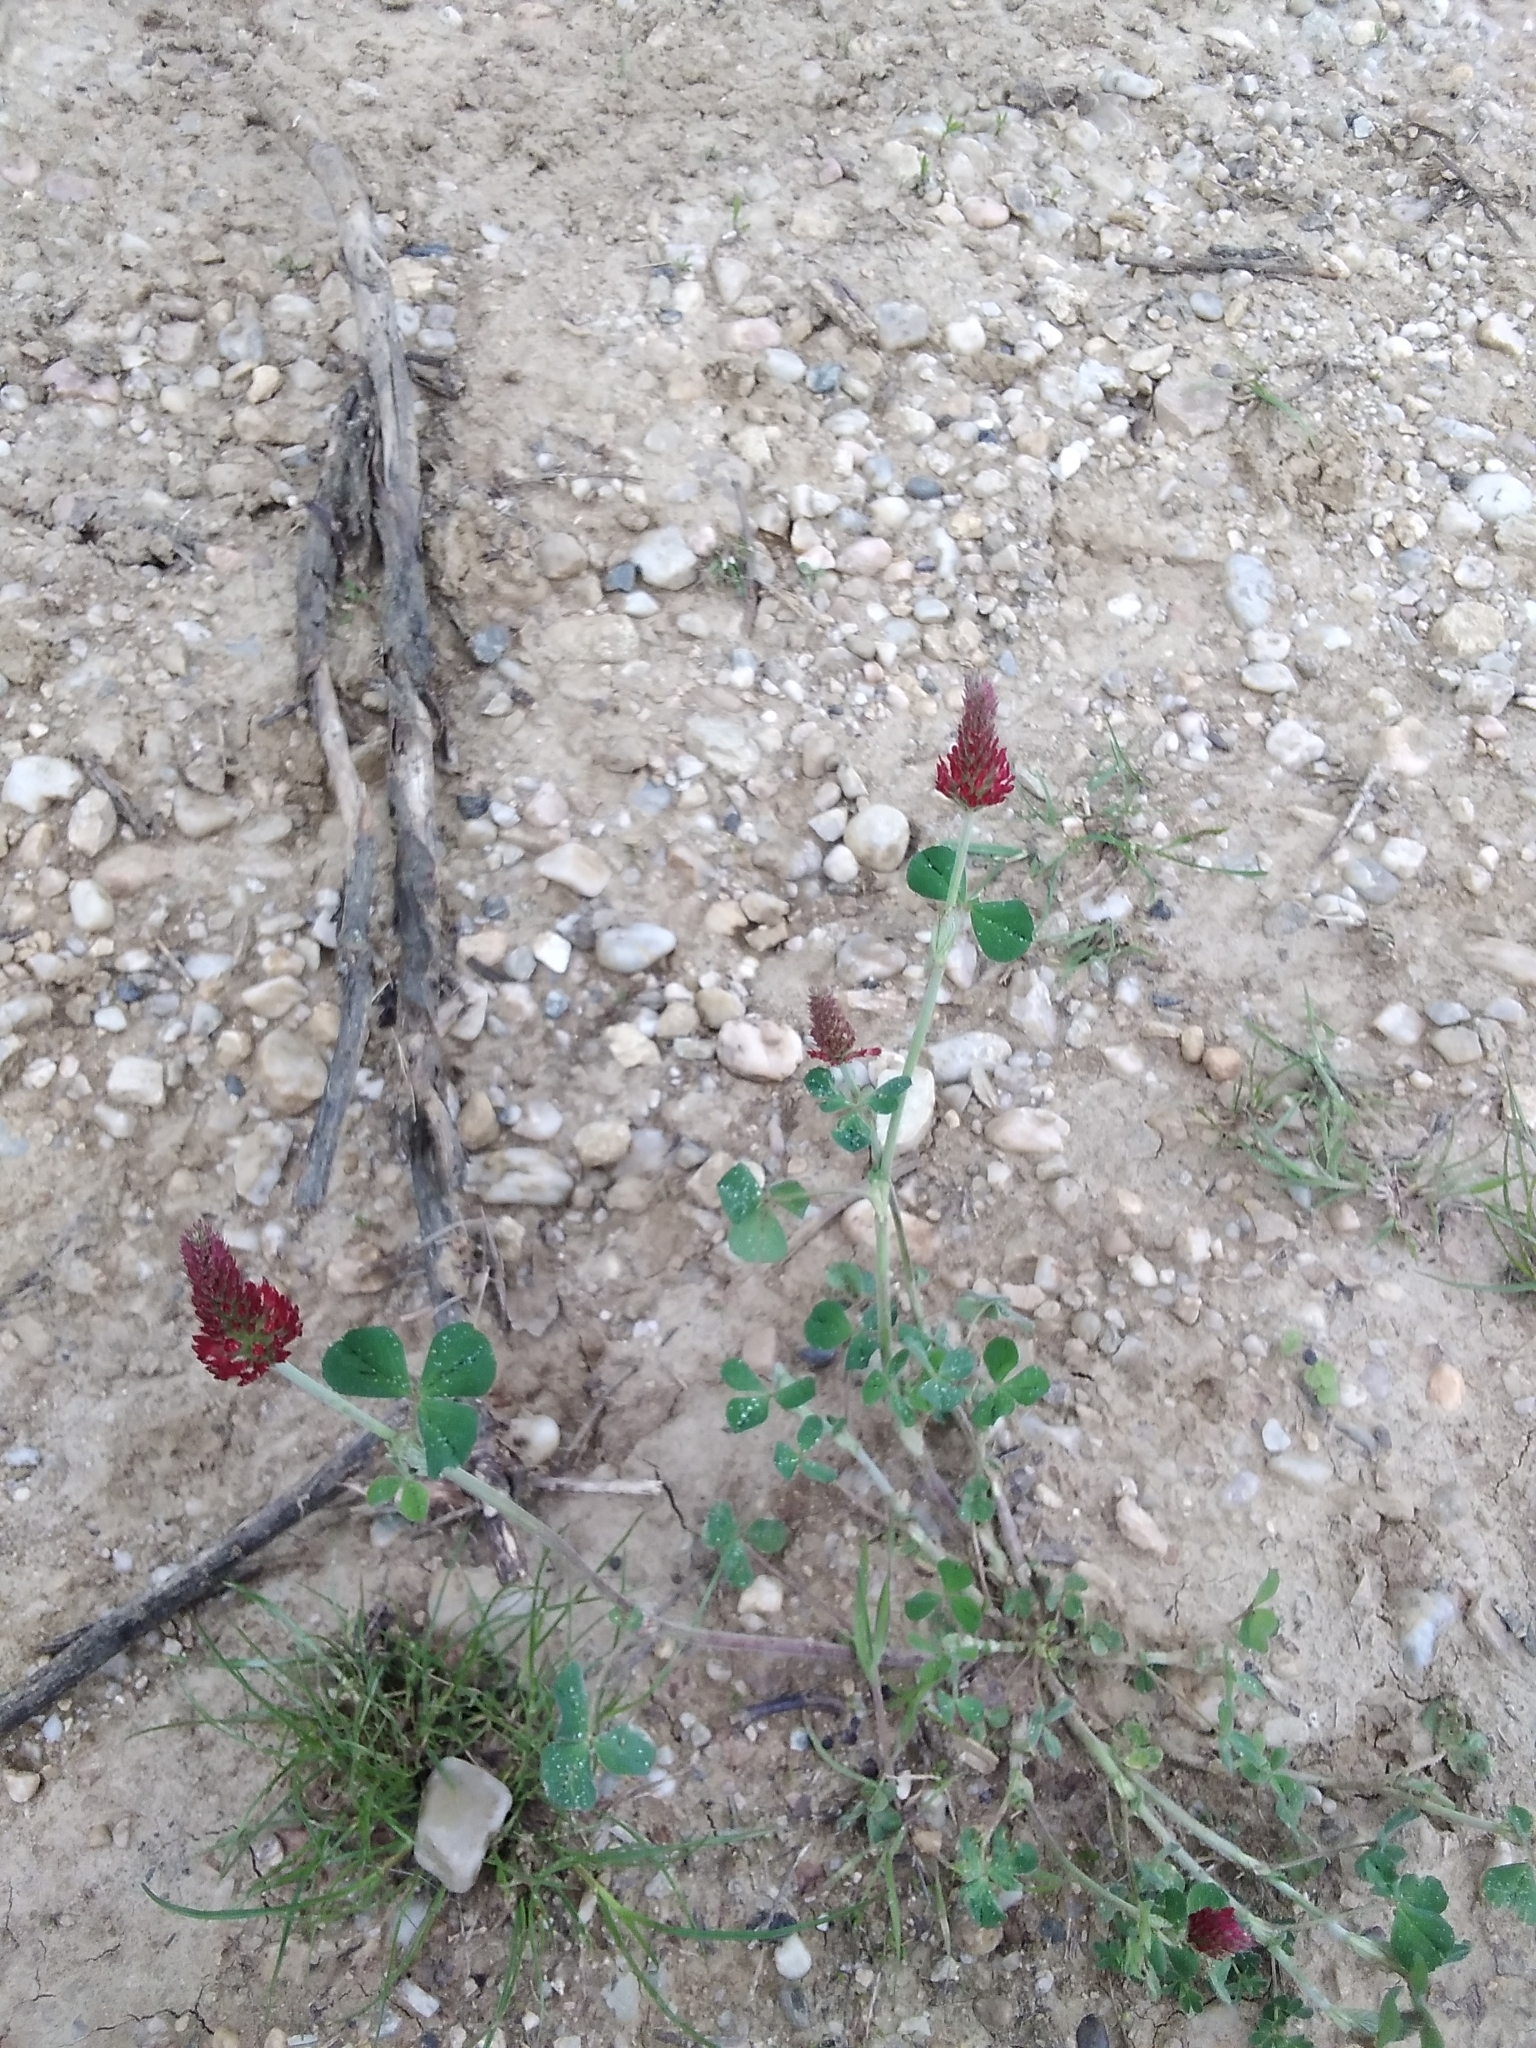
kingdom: Plantae
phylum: Tracheophyta
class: Magnoliopsida
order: Fabales
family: Fabaceae
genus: Trifolium
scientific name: Trifolium incarnatum
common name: Crimson clover
